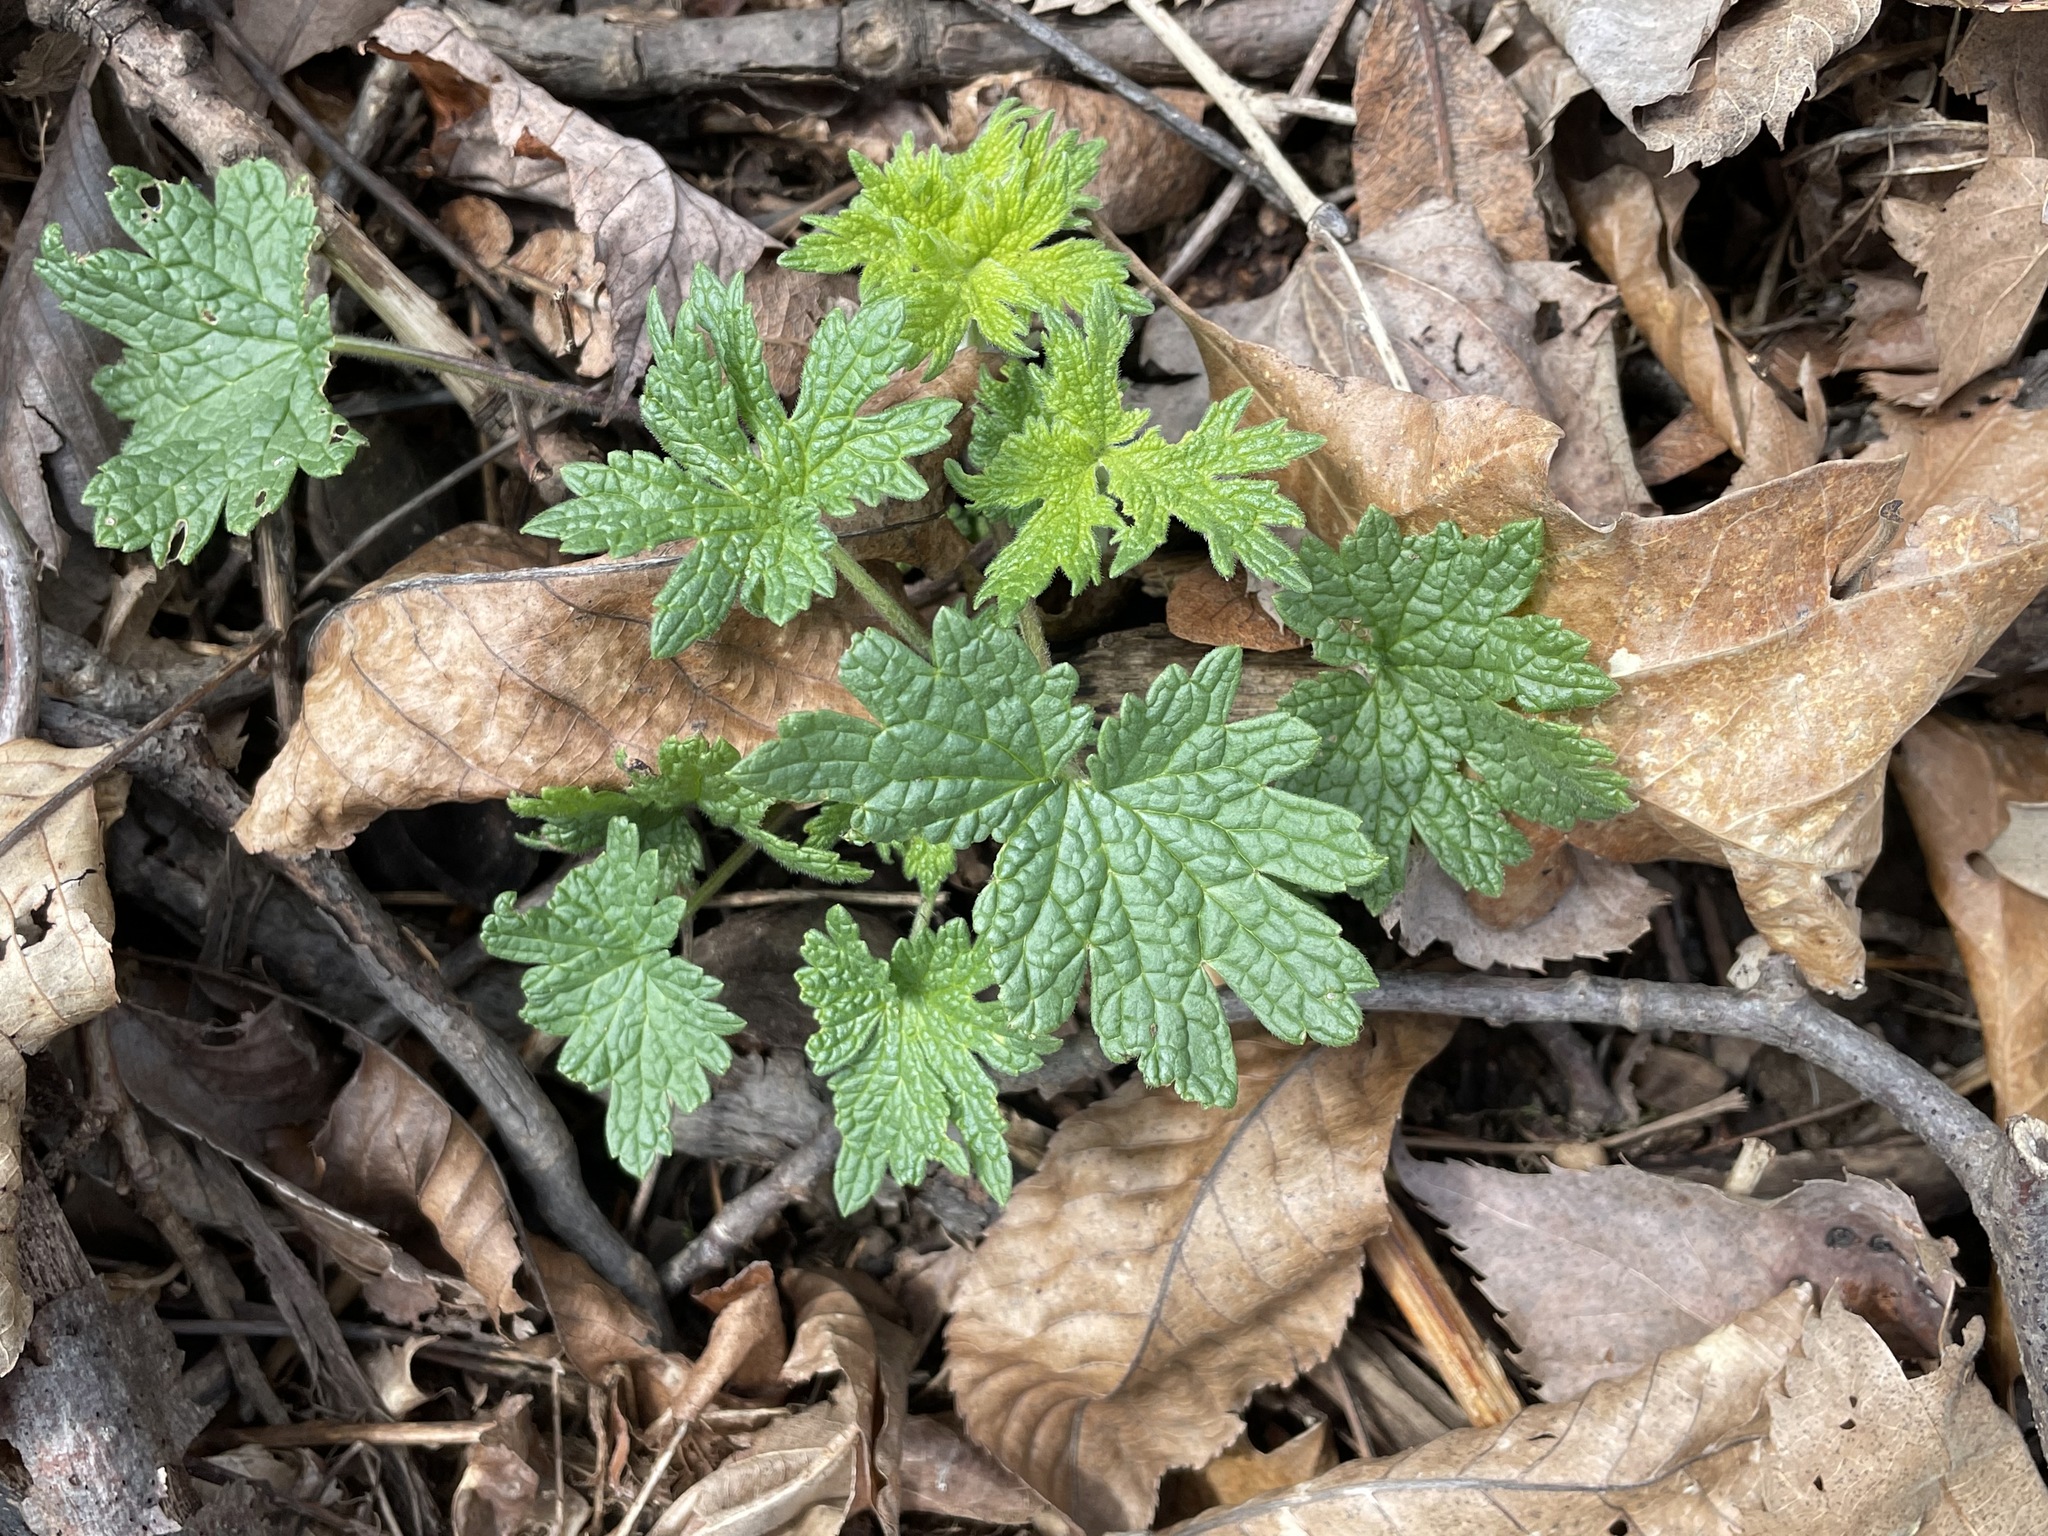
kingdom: Plantae
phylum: Tracheophyta
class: Magnoliopsida
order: Lamiales
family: Lamiaceae
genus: Leonurus
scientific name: Leonurus cardiaca
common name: Motherwort
